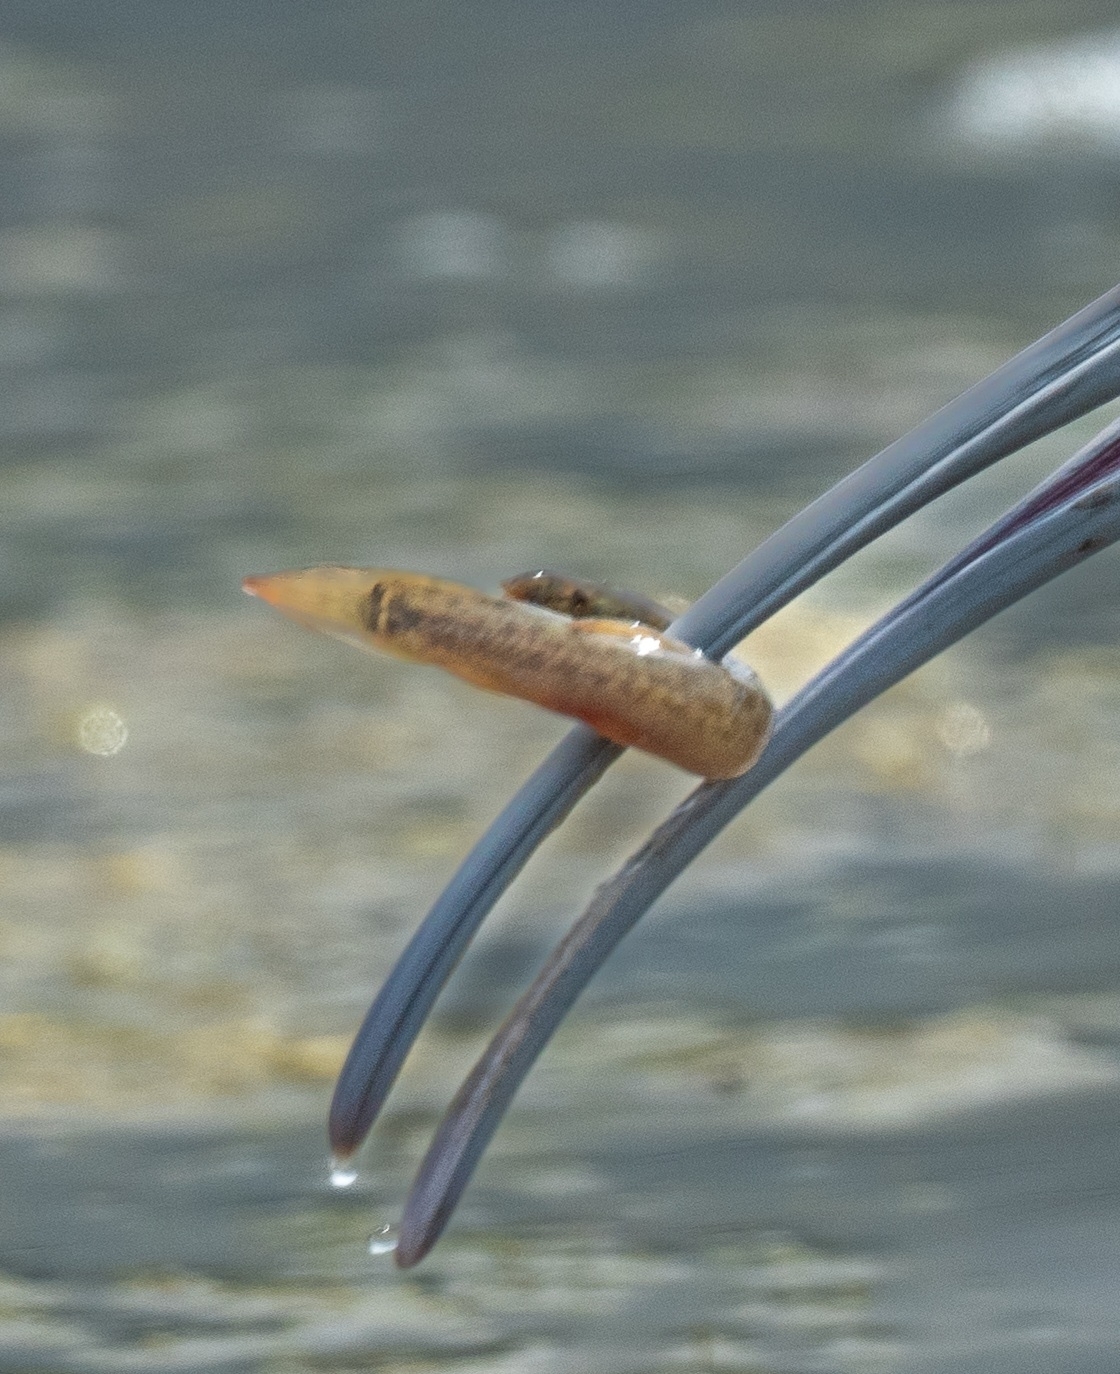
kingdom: Animalia
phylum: Chordata
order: Cypriniformes
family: Cobitidae
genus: Misgurnus
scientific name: Misgurnus anguillicaudatus
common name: Oriental weatherfish
